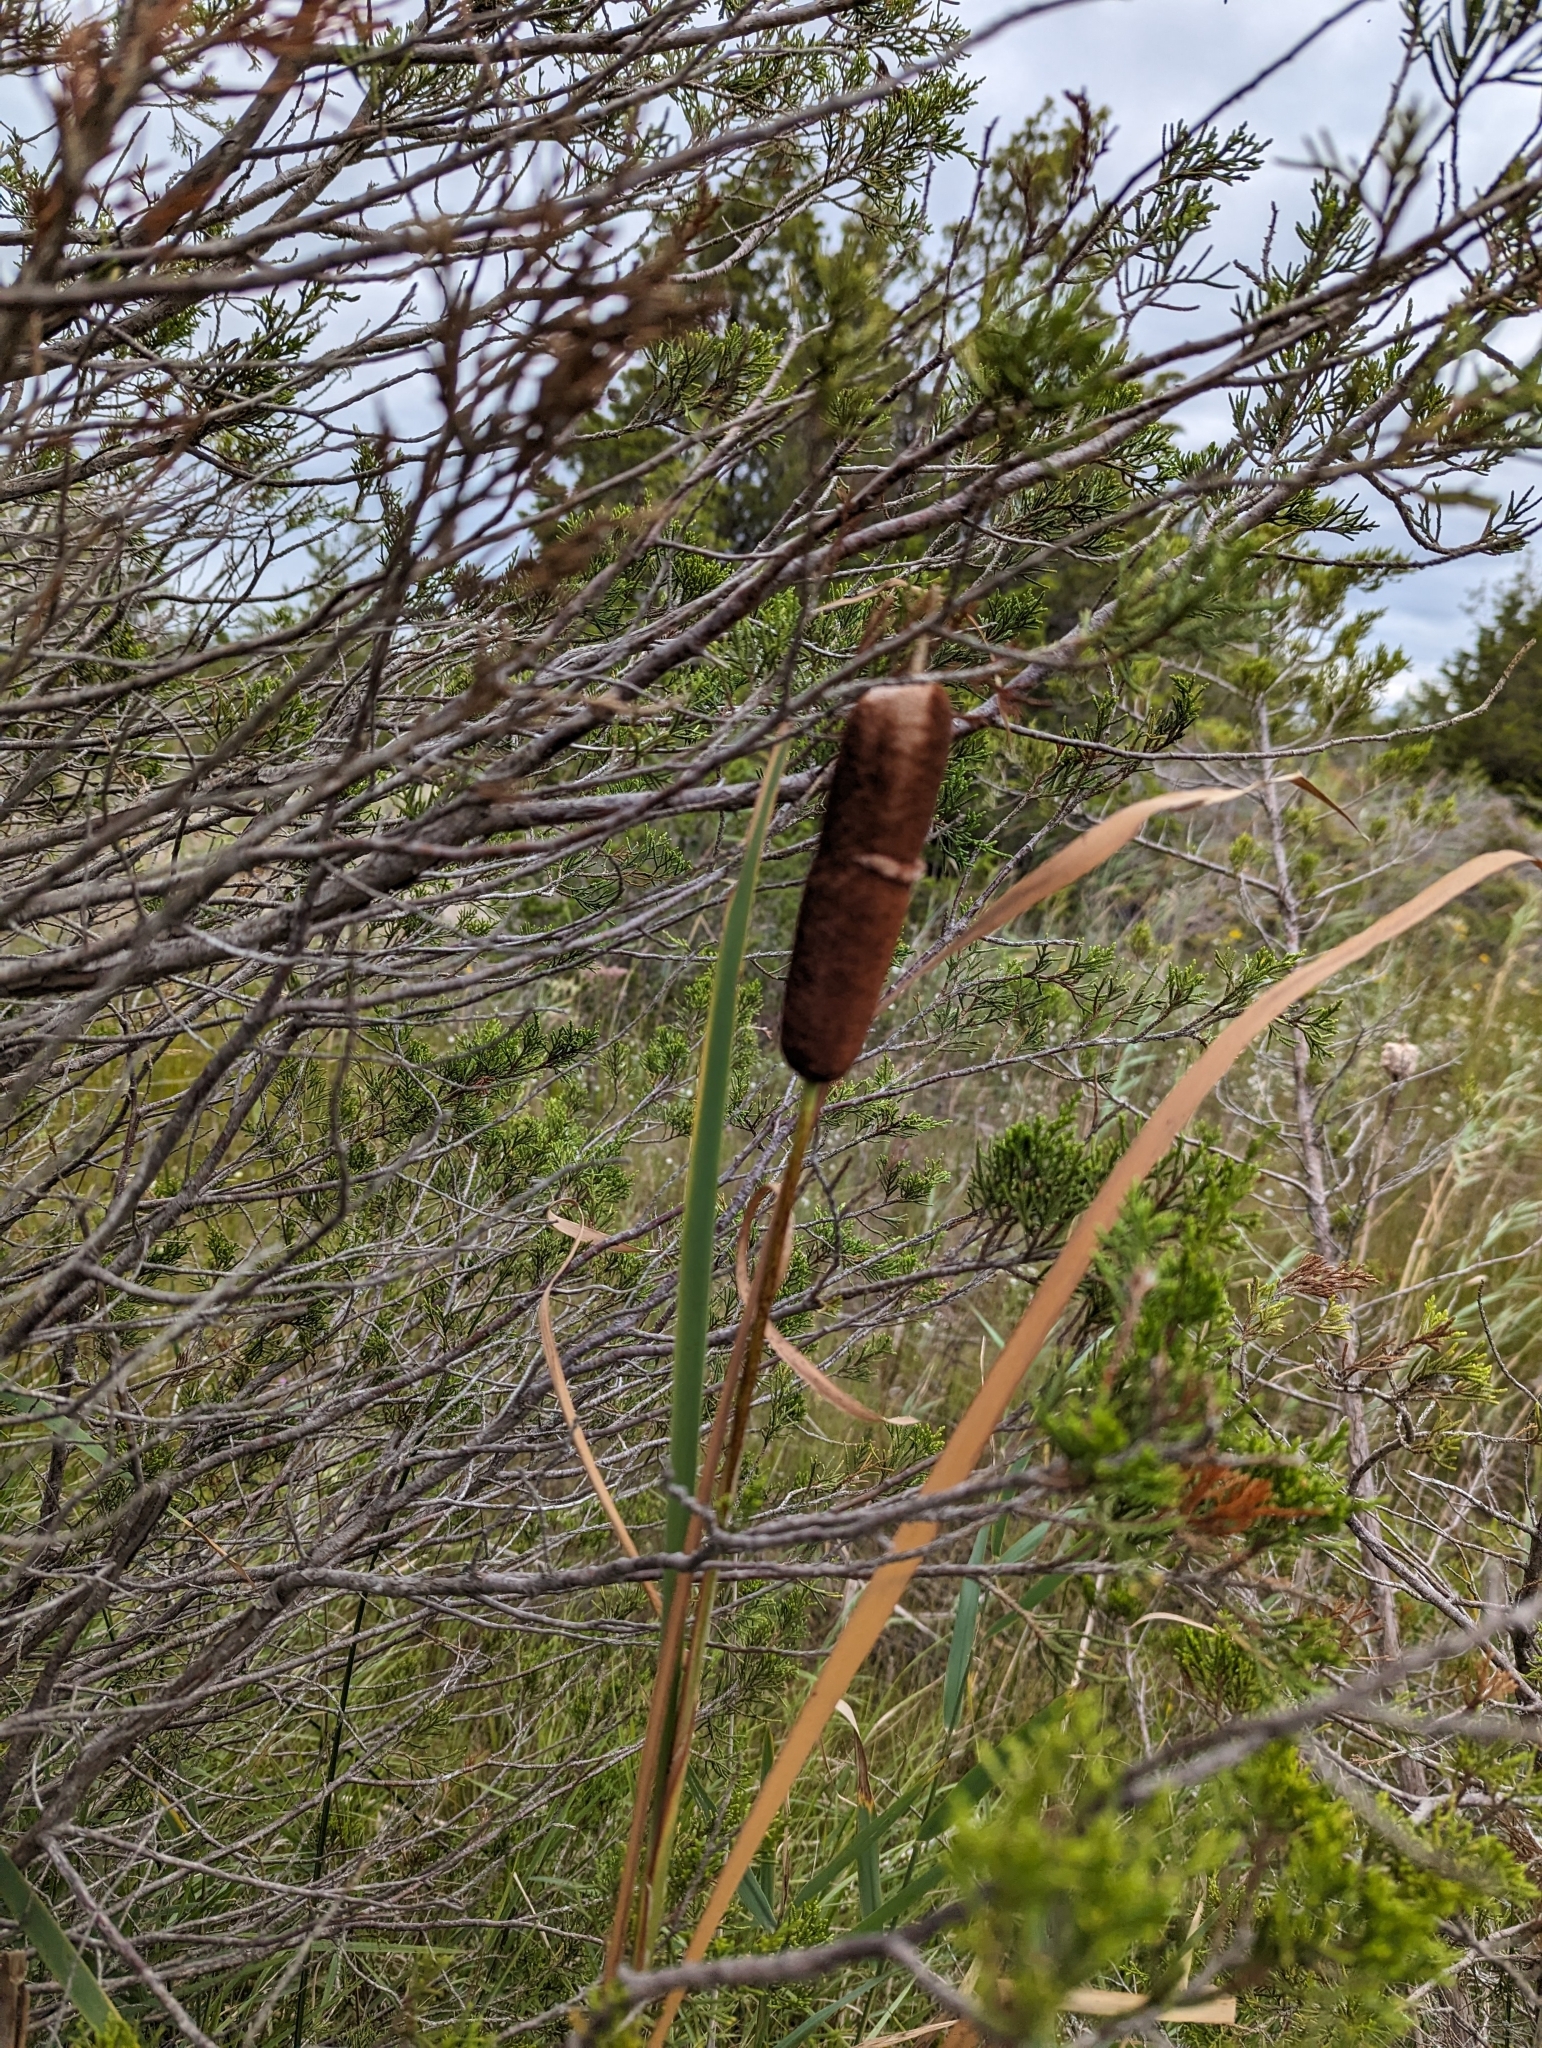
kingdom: Plantae
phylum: Tracheophyta
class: Liliopsida
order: Poales
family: Typhaceae
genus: Typha
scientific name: Typha angustifolia
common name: Lesser bulrush
